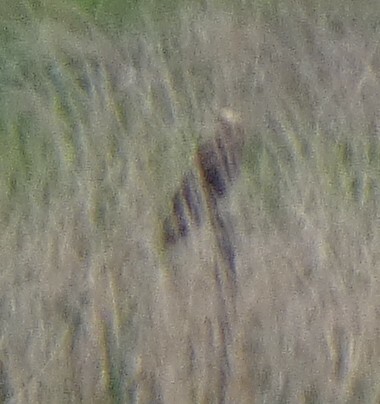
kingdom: Animalia
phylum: Chordata
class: Aves
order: Accipitriformes
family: Accipitridae
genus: Circus
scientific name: Circus aeruginosus
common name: Western marsh harrier
